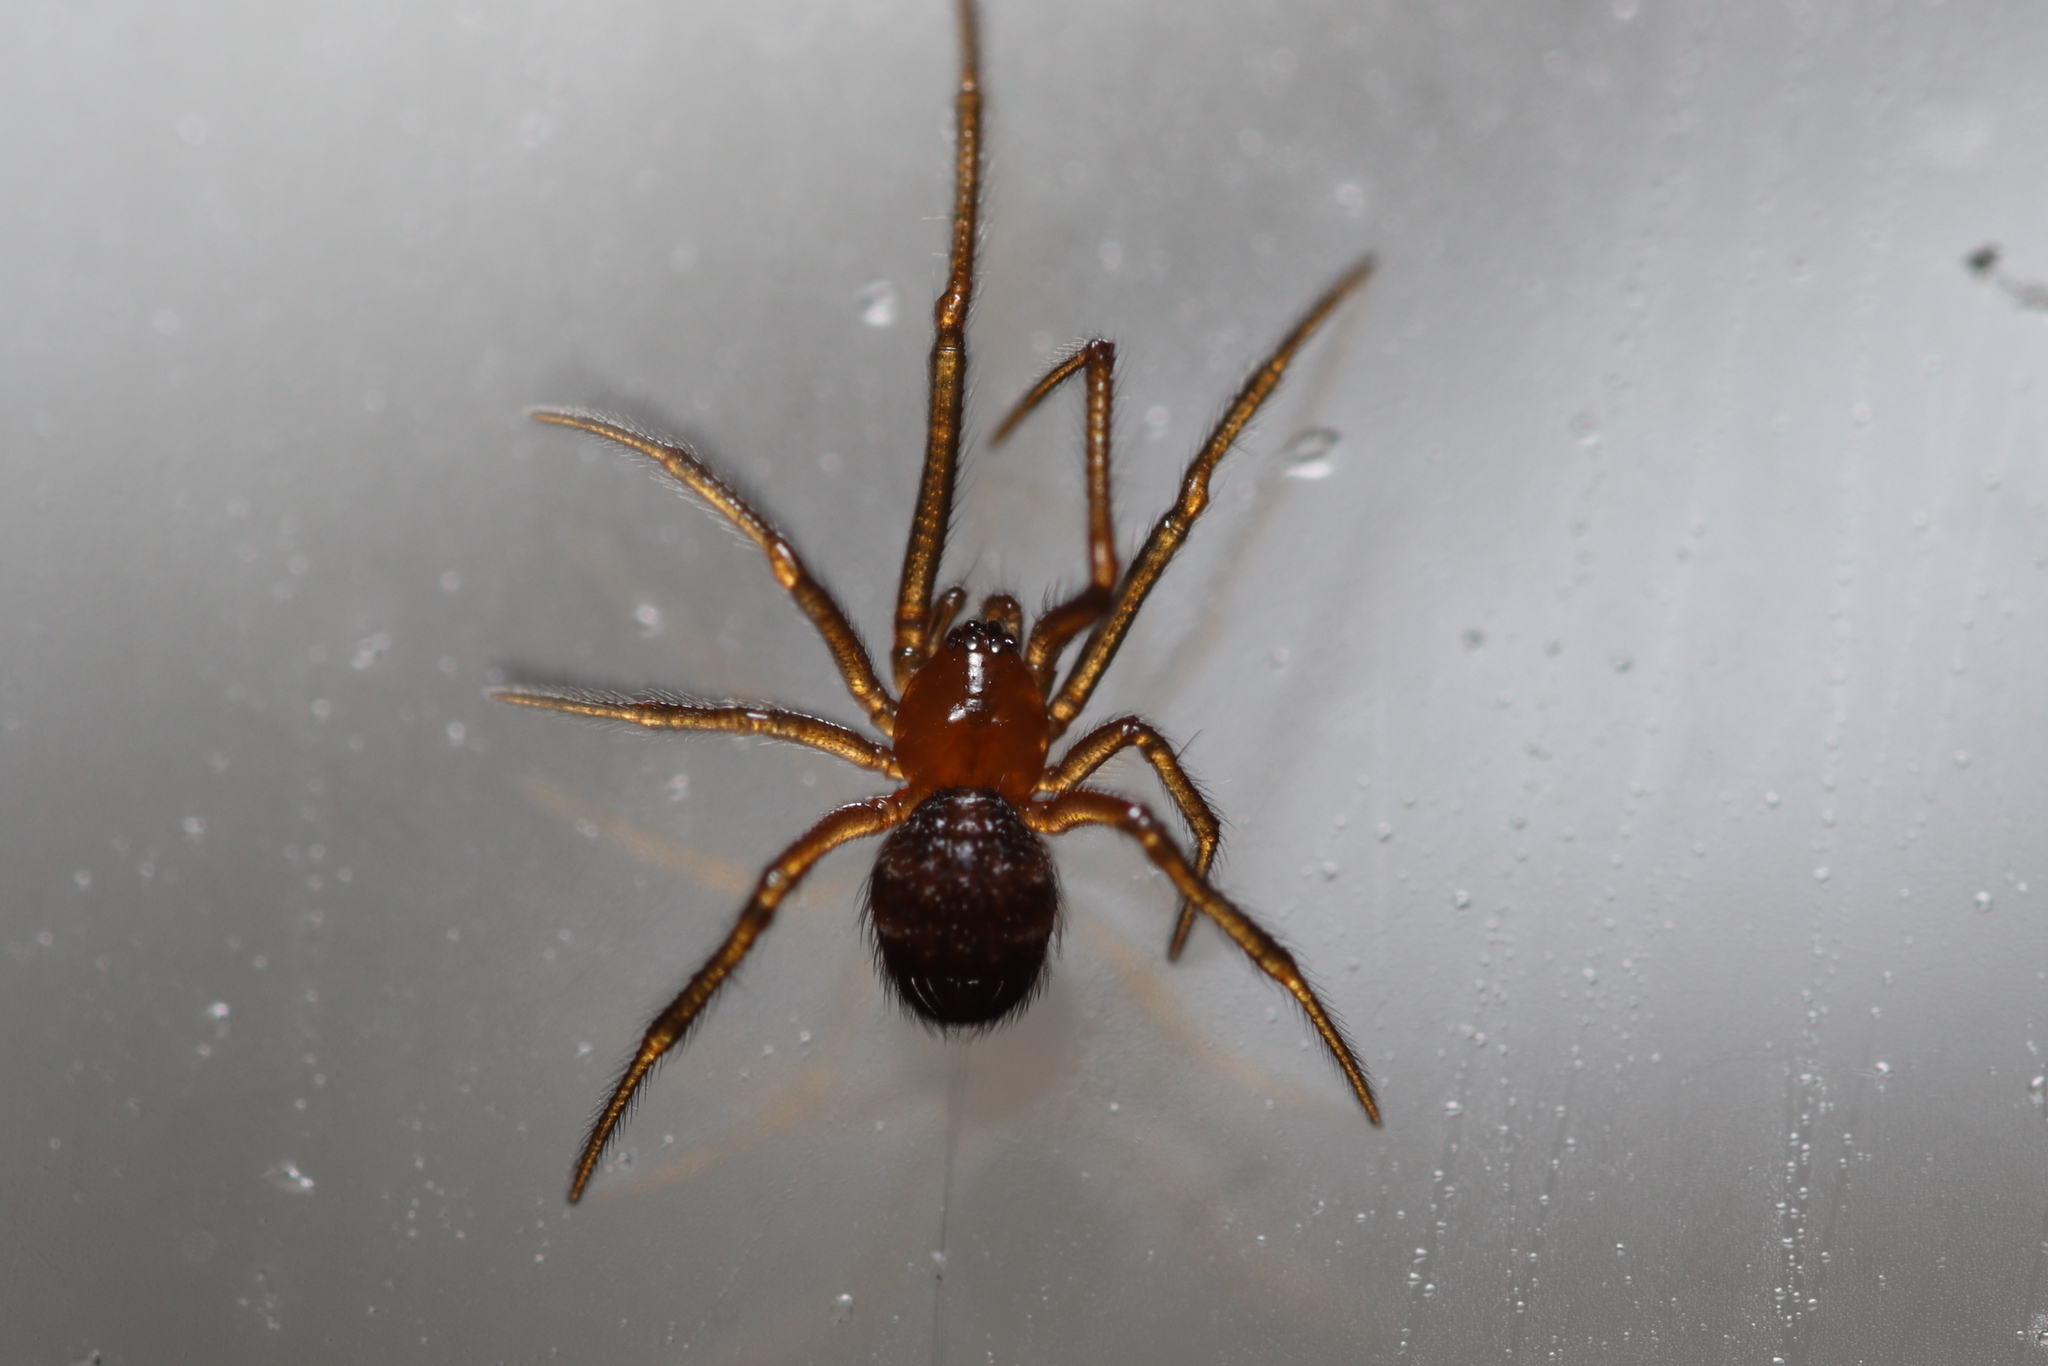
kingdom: Animalia
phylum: Arthropoda
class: Arachnida
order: Araneae
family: Theridiidae
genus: Nesticodes
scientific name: Nesticodes rufipes
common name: Cobweb spiders
